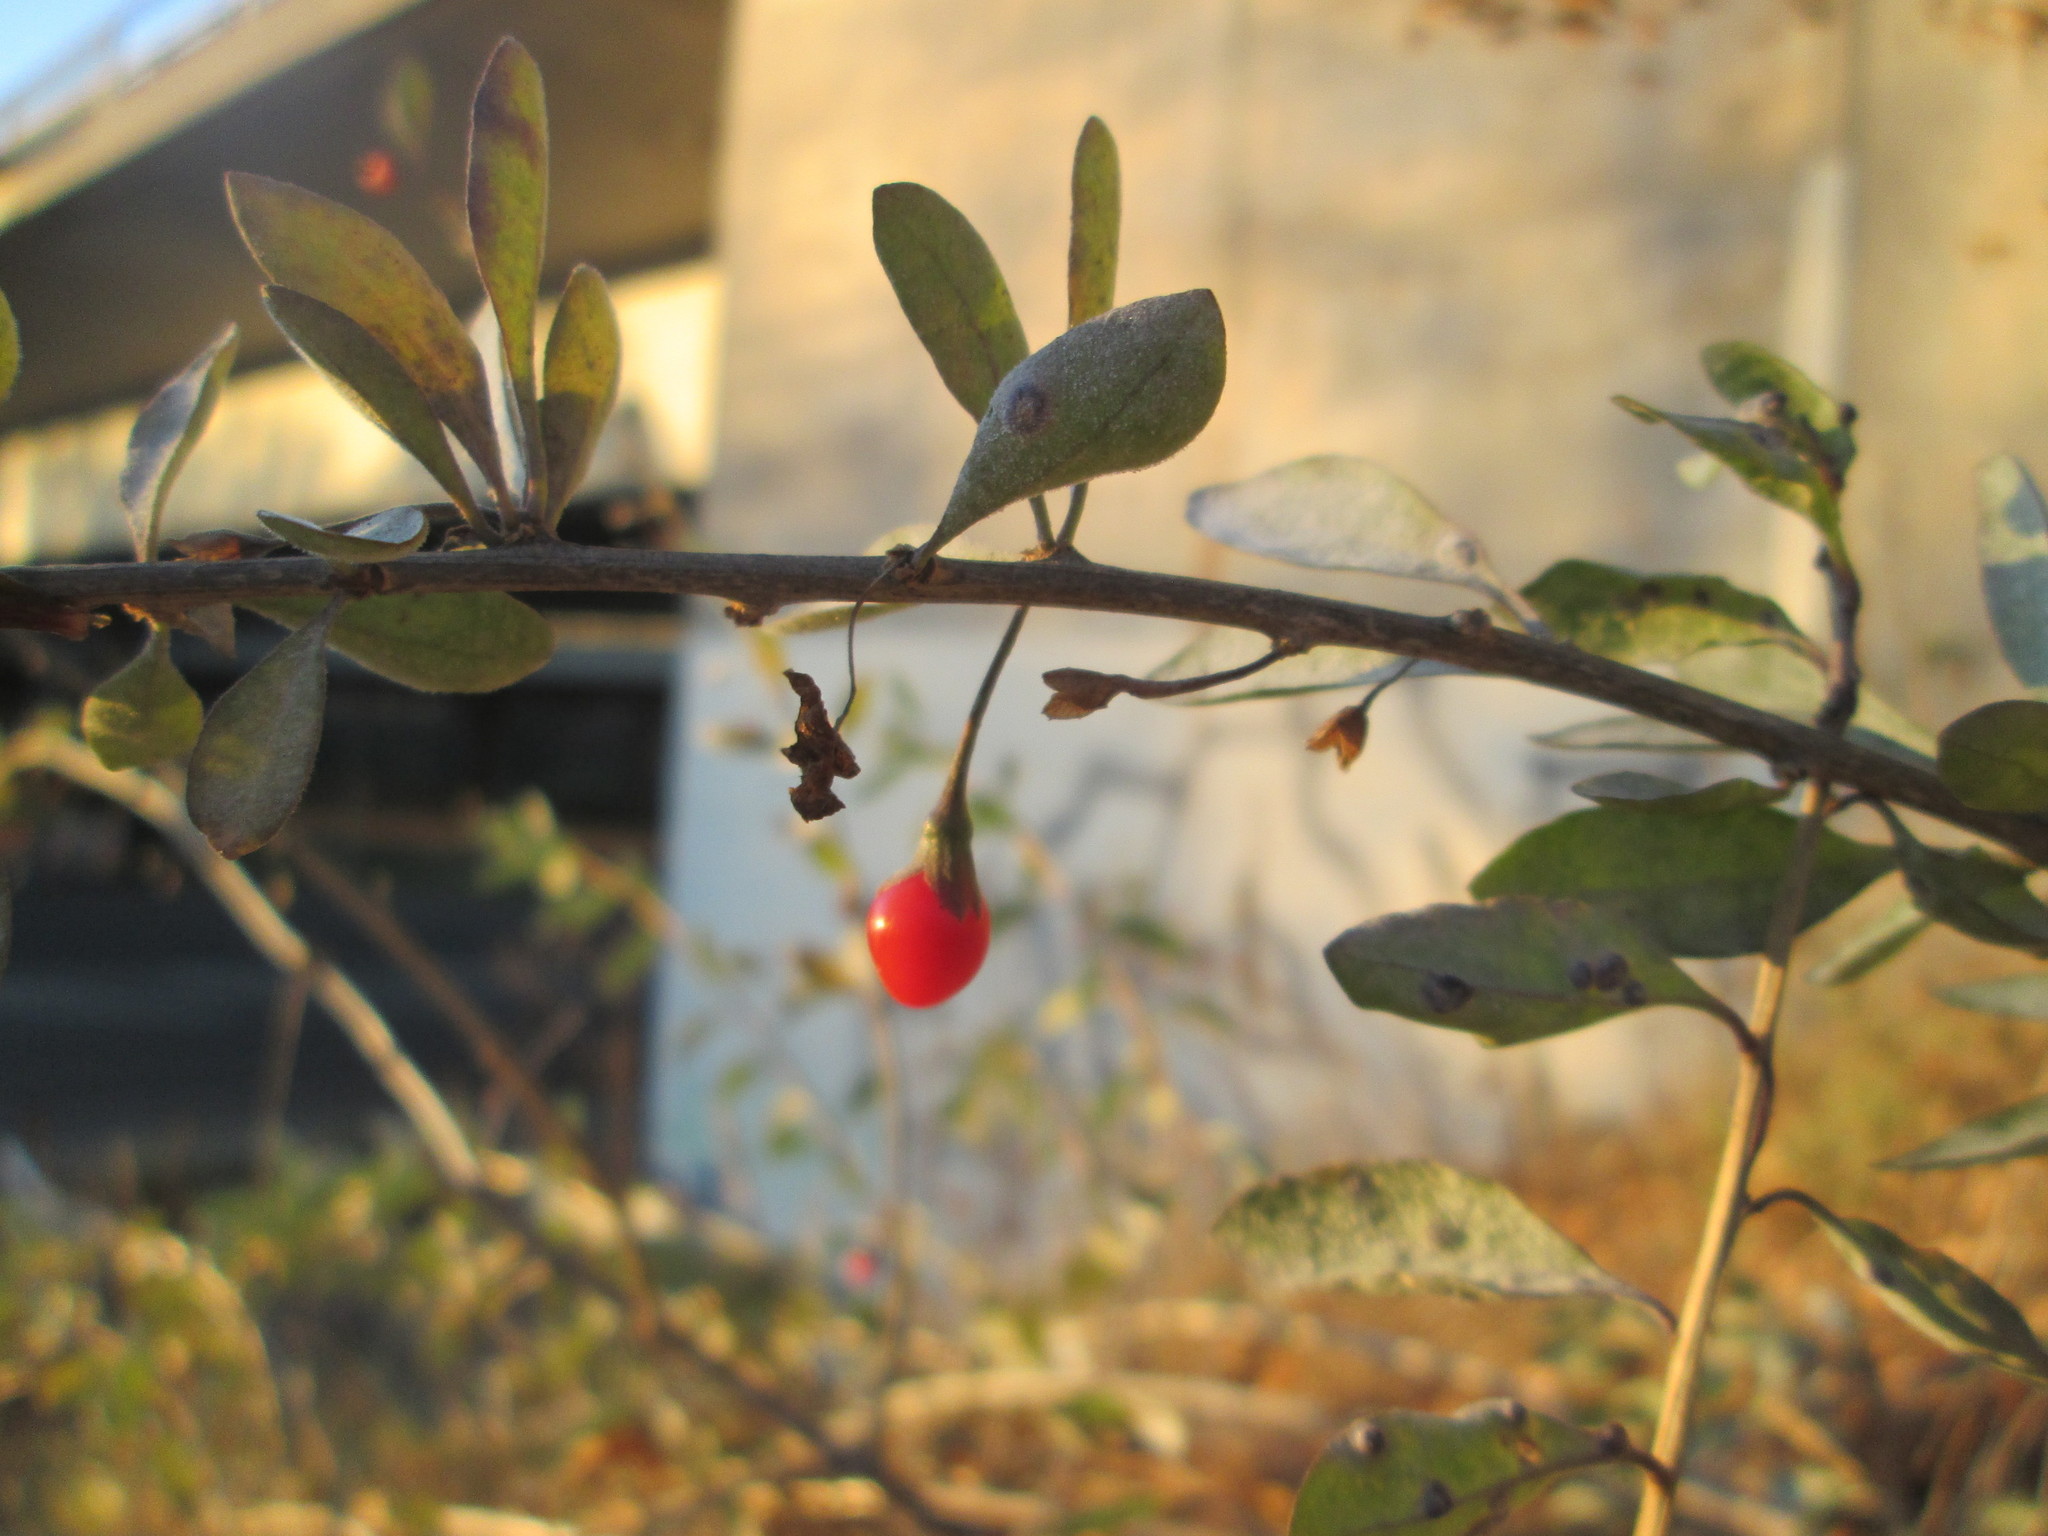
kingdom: Plantae
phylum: Tracheophyta
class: Magnoliopsida
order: Solanales
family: Solanaceae
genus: Lycium
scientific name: Lycium barbarum
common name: Duke of argyll's teaplant
